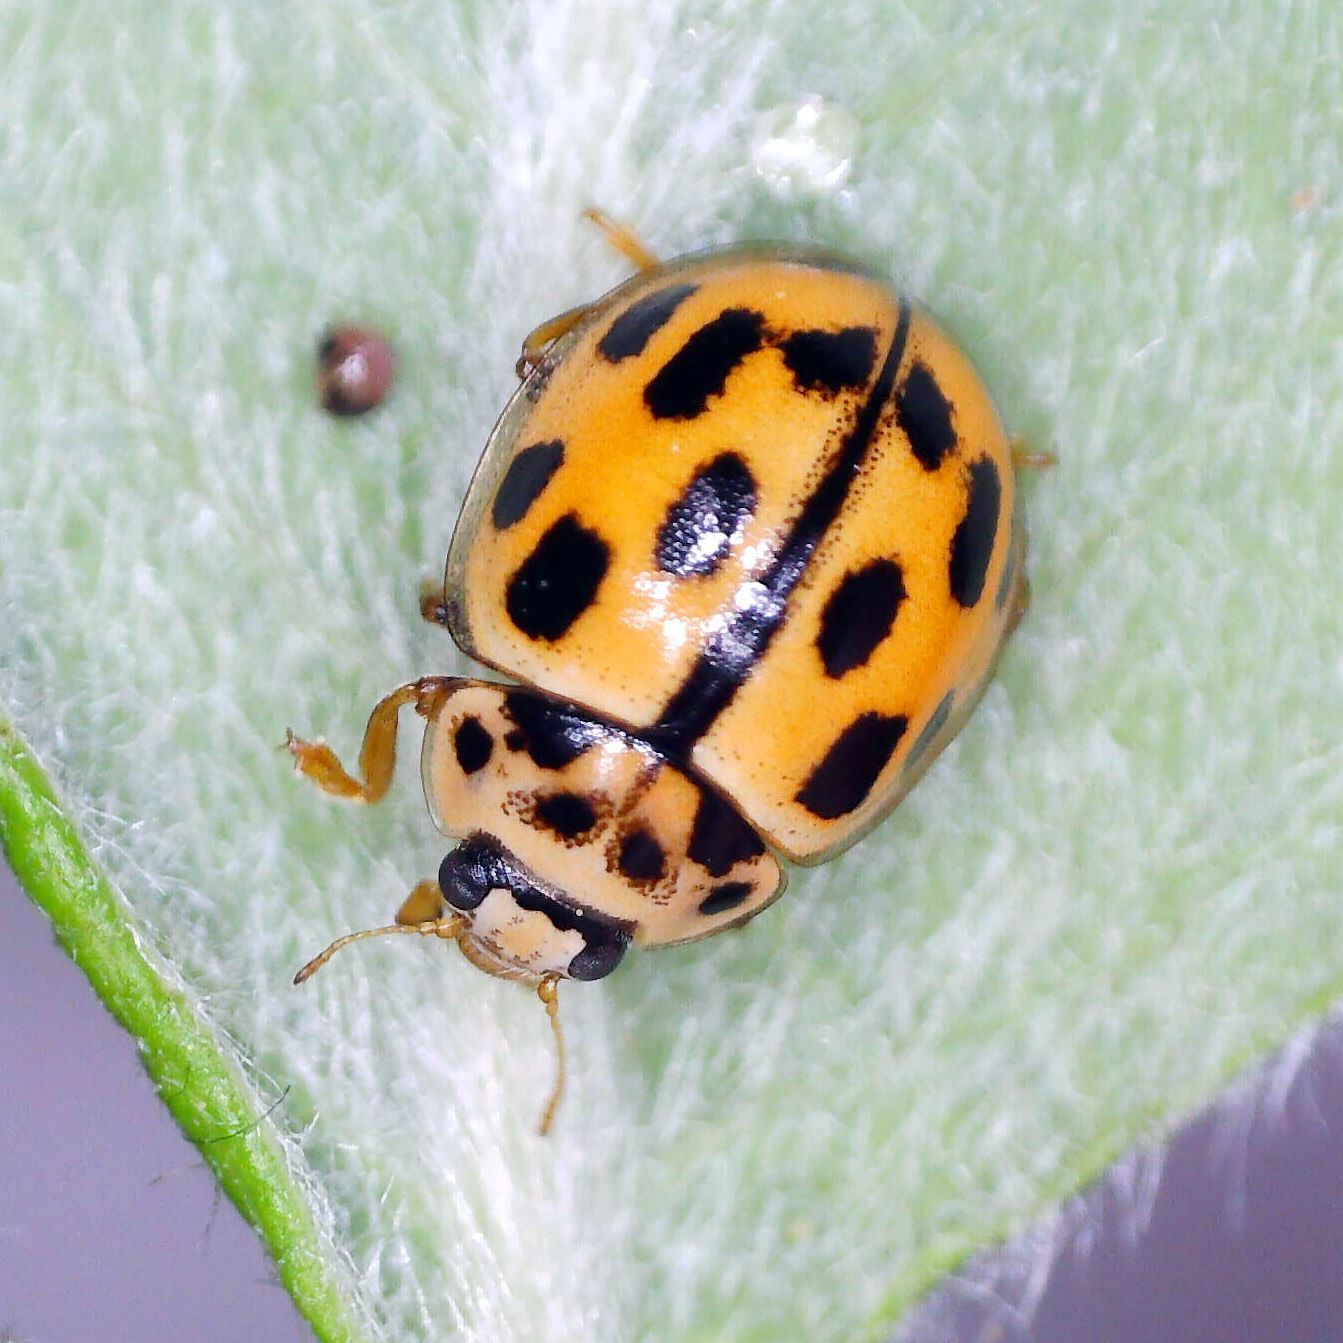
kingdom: Animalia
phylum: Arthropoda
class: Insecta
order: Coleoptera
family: Coccinellidae
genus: Propylaea
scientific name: Propylaea quatuordecimpunctata
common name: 14-spotted ladybird beetle
